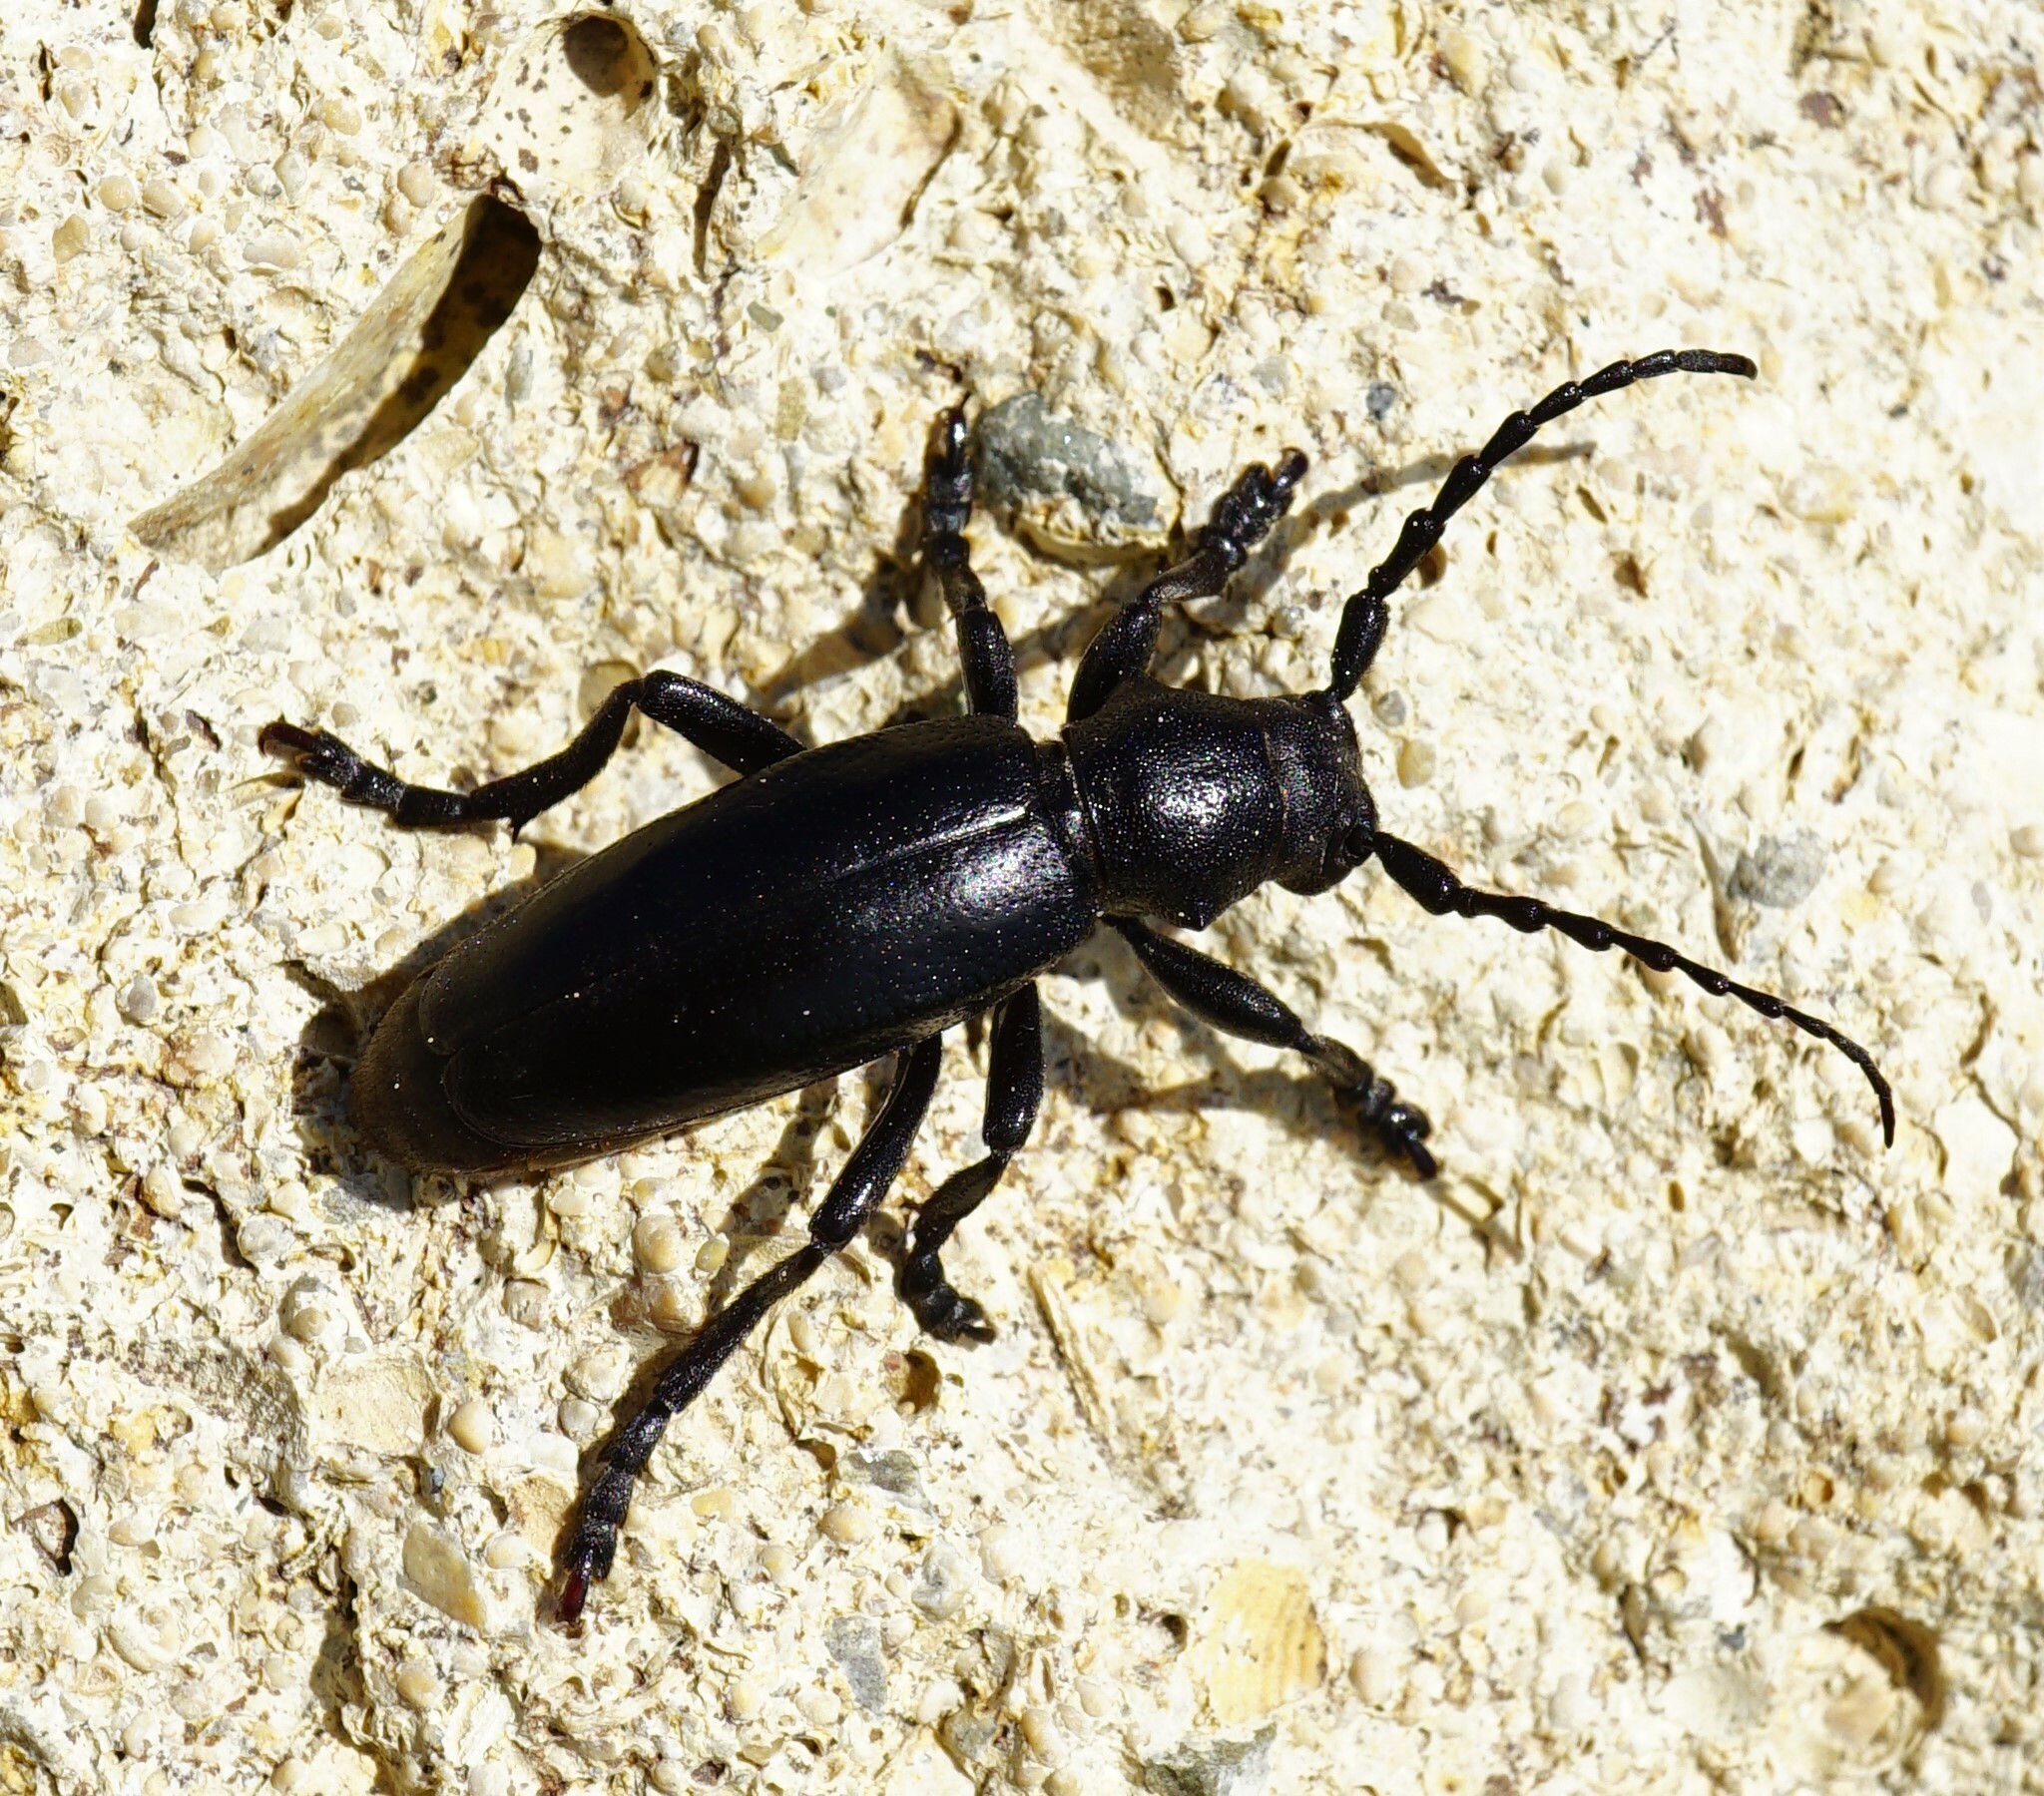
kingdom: Animalia
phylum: Arthropoda
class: Insecta
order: Coleoptera
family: Cerambycidae
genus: Dorcadion
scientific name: Dorcadion aethiops
